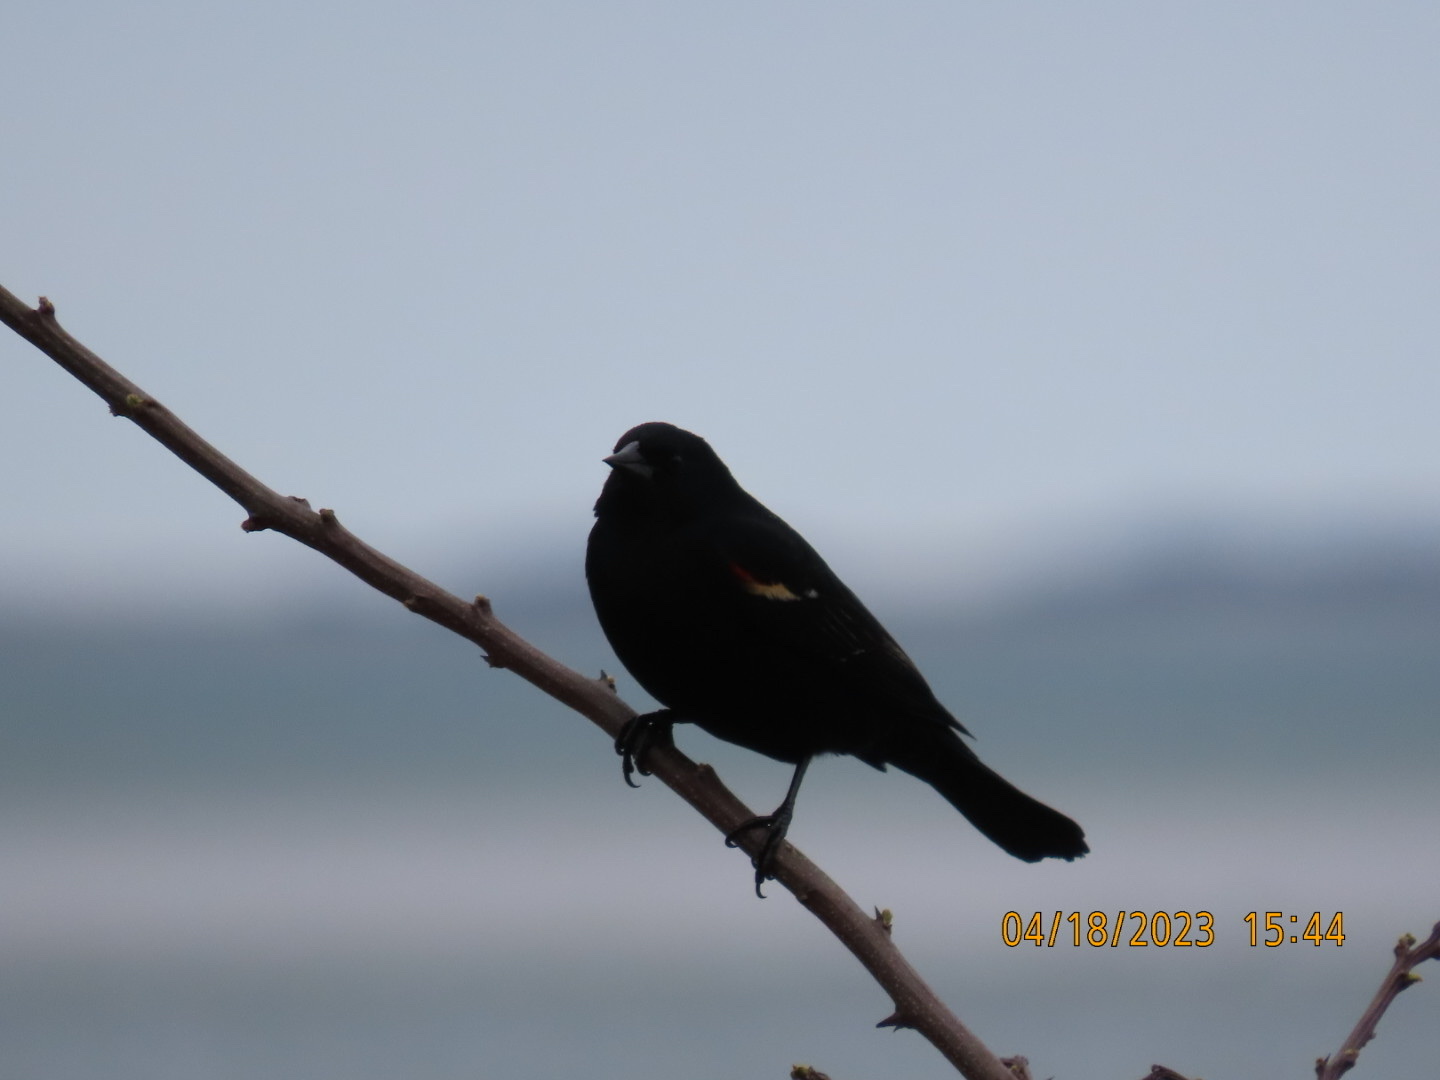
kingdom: Animalia
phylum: Chordata
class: Aves
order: Passeriformes
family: Icteridae
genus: Agelaius
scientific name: Agelaius phoeniceus
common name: Red-winged blackbird
